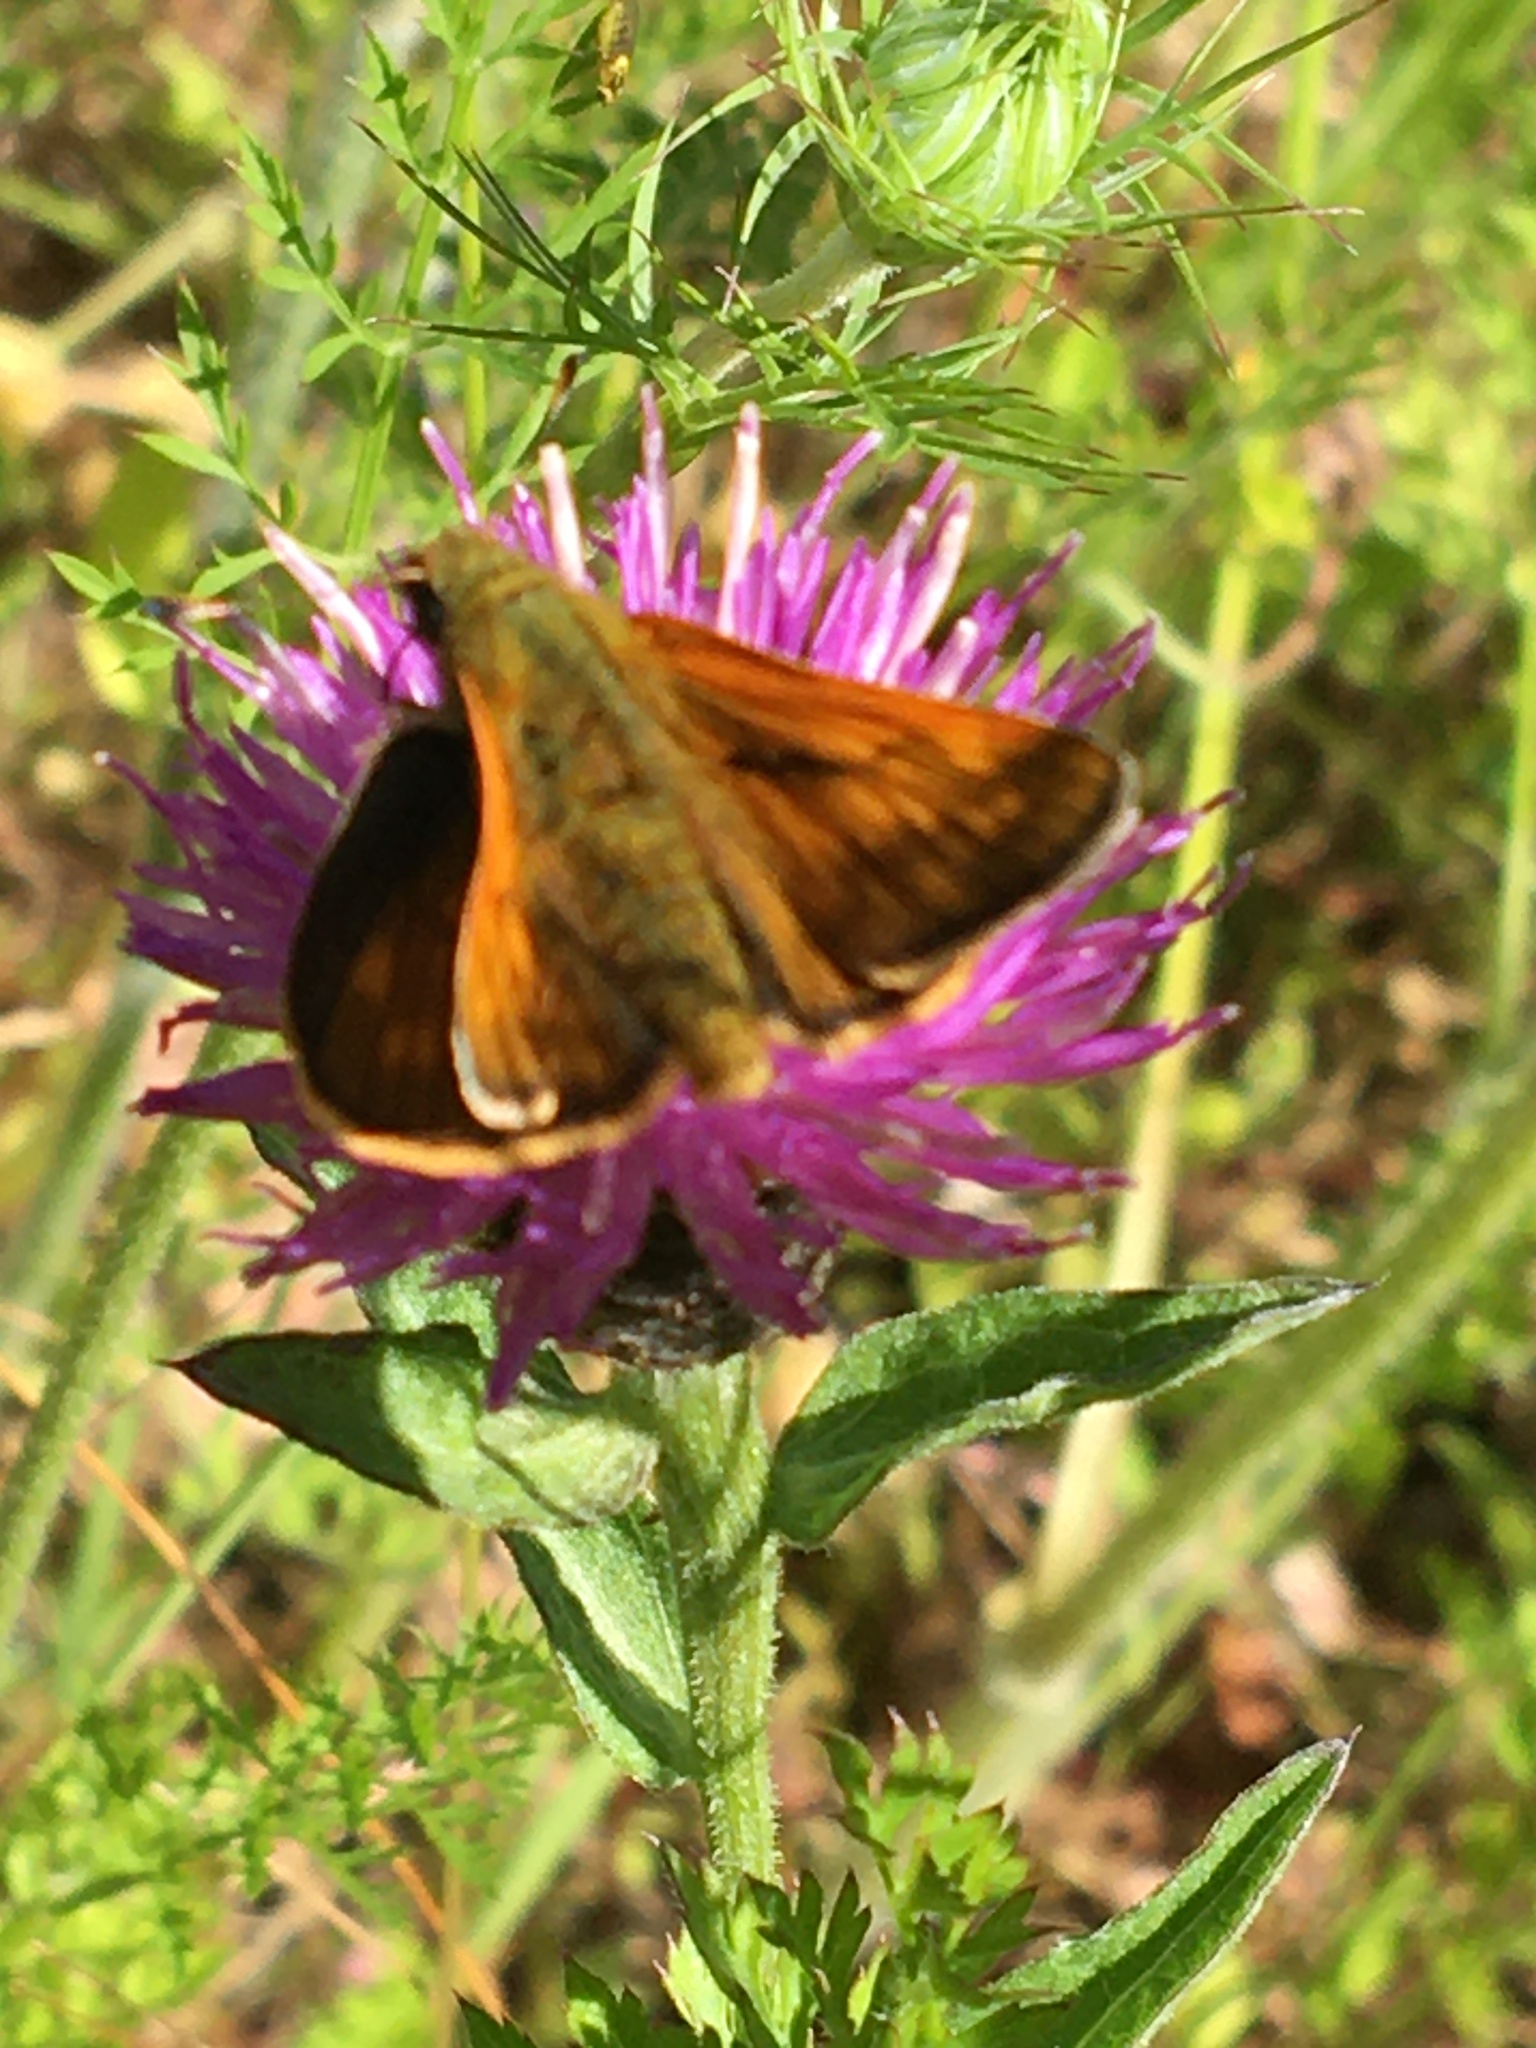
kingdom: Animalia
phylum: Arthropoda
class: Insecta
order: Lepidoptera
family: Hesperiidae
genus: Ochlodes
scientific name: Ochlodes venata
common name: Large skipper
